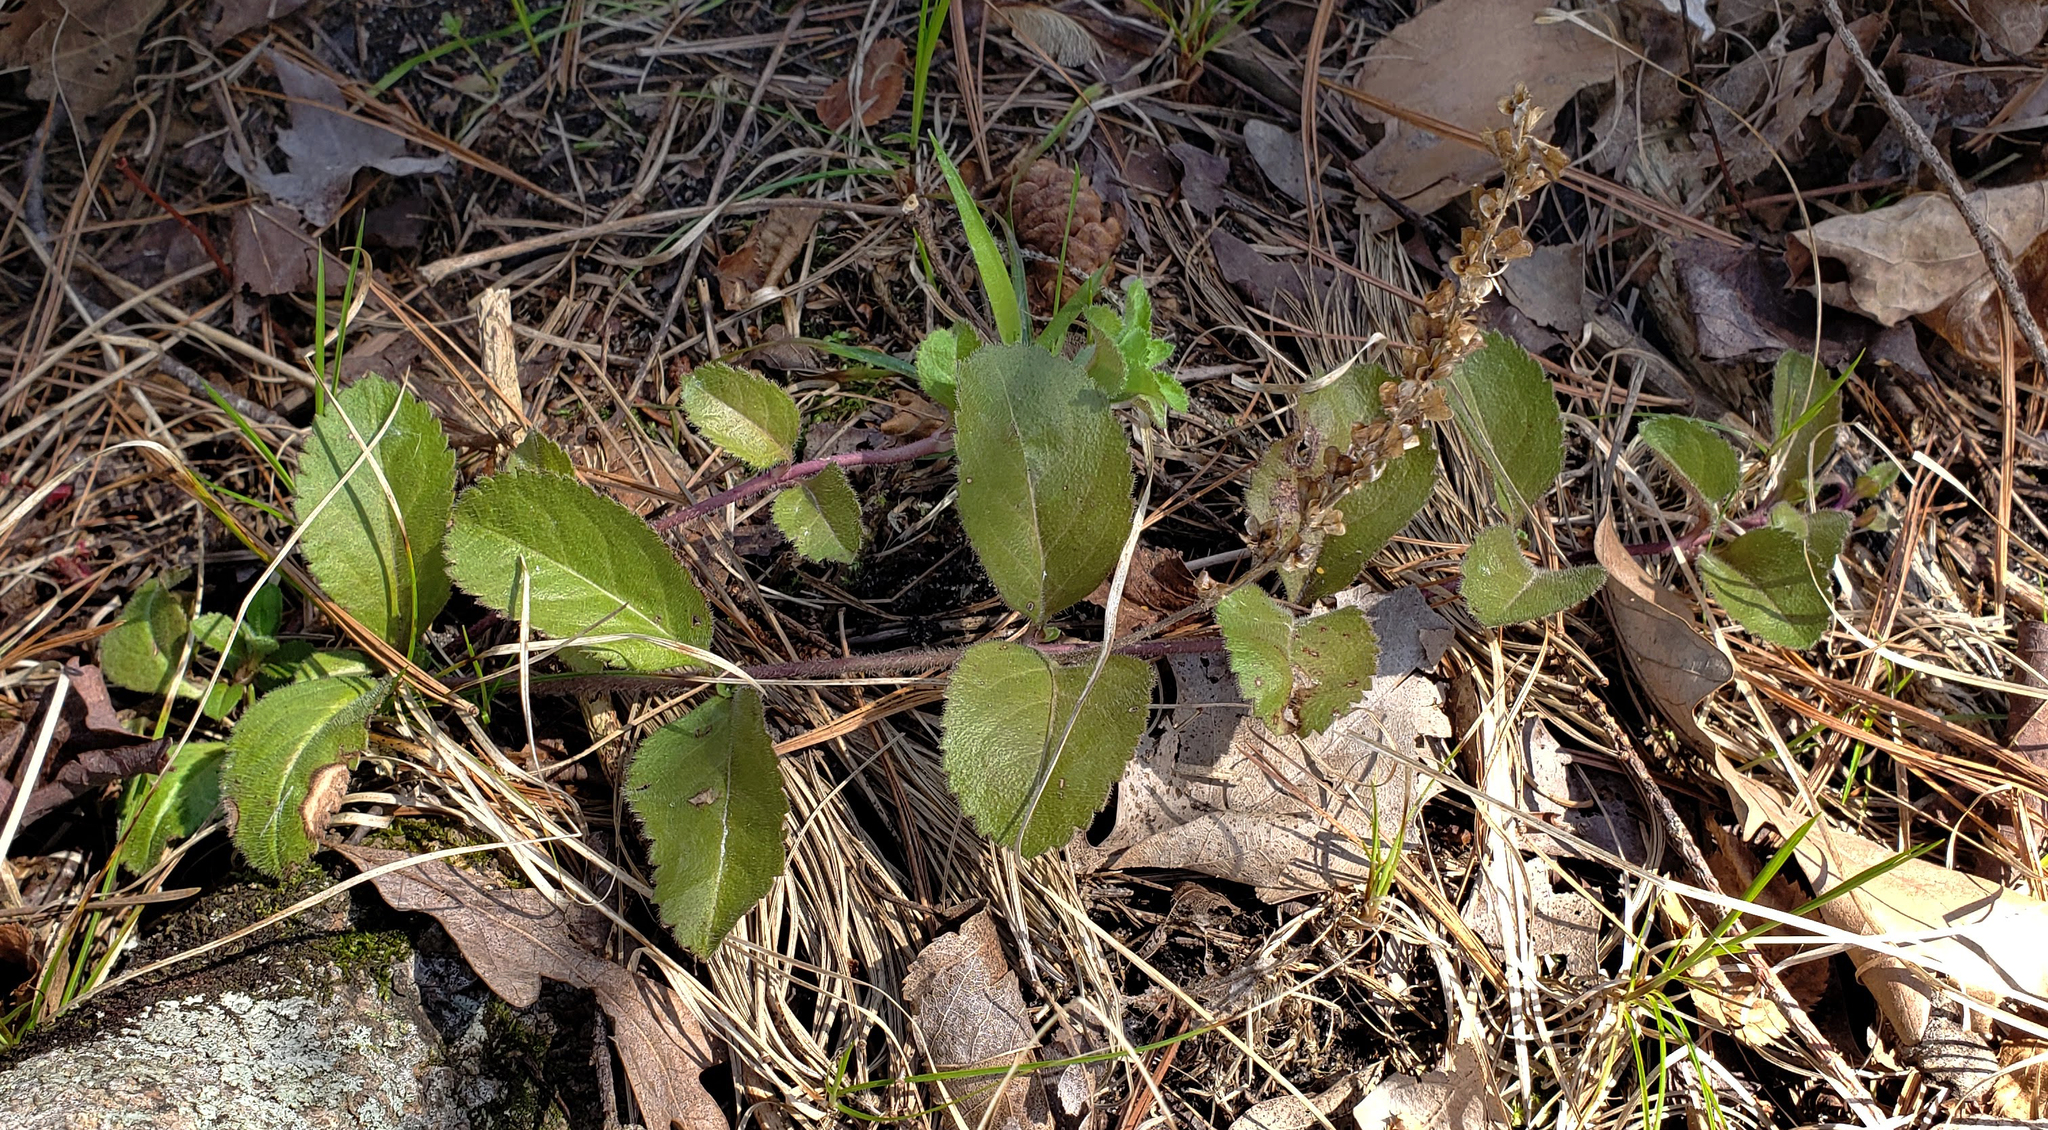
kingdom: Plantae
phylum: Tracheophyta
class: Magnoliopsida
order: Lamiales
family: Plantaginaceae
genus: Veronica
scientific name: Veronica officinalis
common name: Common speedwell
